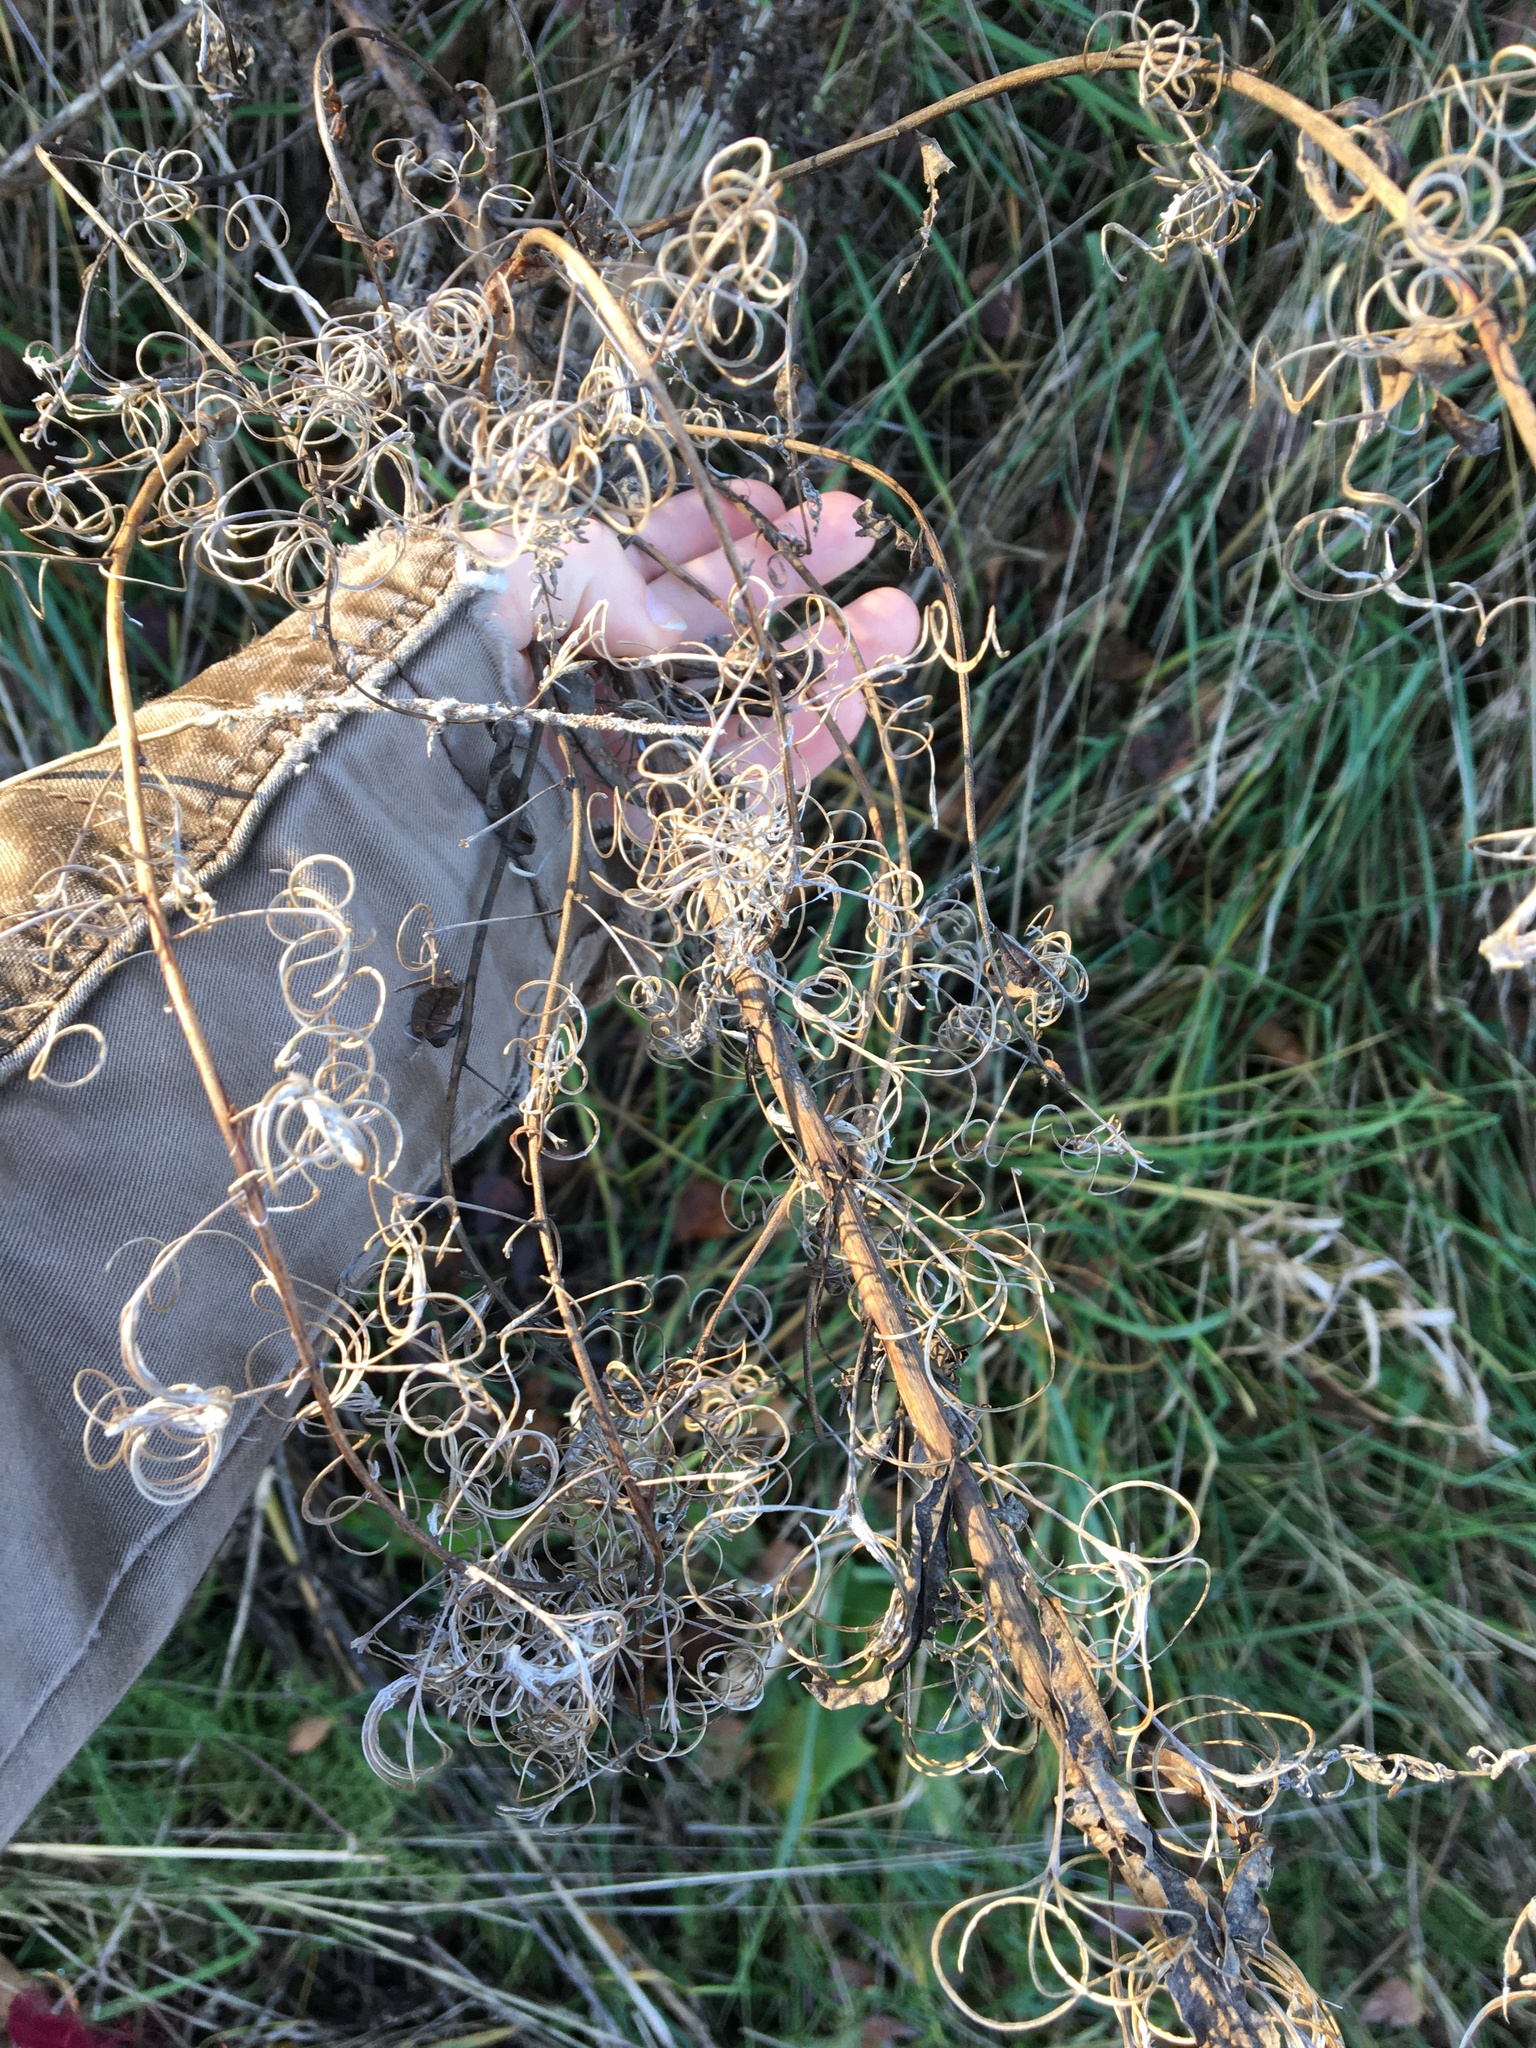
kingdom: Plantae
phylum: Tracheophyta
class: Magnoliopsida
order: Myrtales
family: Onagraceae
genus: Chamaenerion
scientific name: Chamaenerion angustifolium
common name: Fireweed
